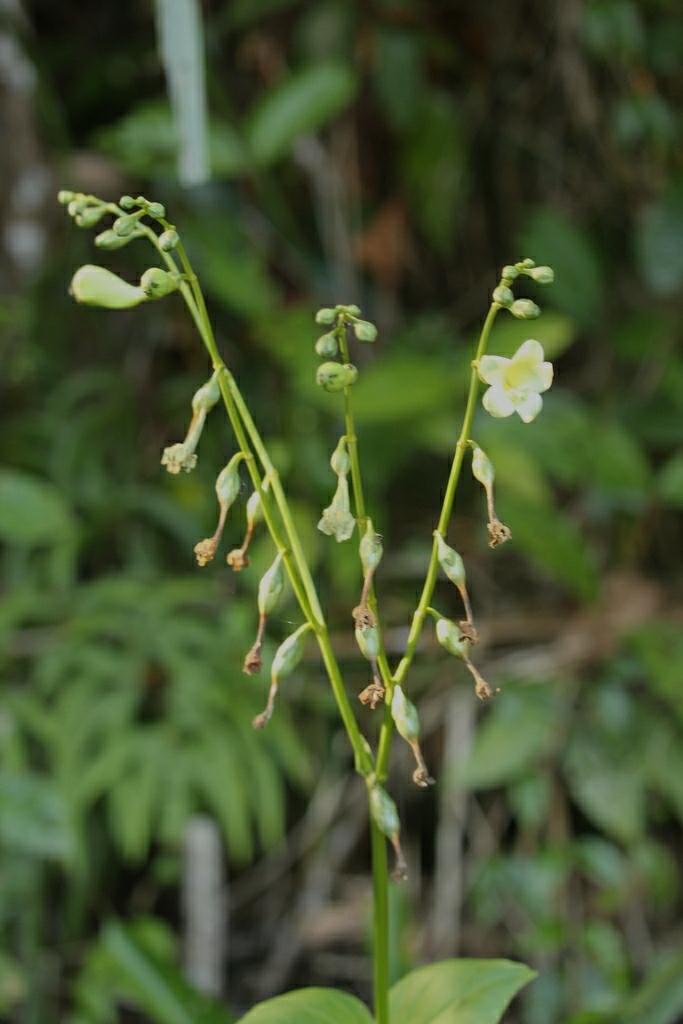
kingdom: Plantae
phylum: Tracheophyta
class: Magnoliopsida
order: Gentianales
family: Gentianaceae
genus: Chelonanthus
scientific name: Chelonanthus grandiflorus
